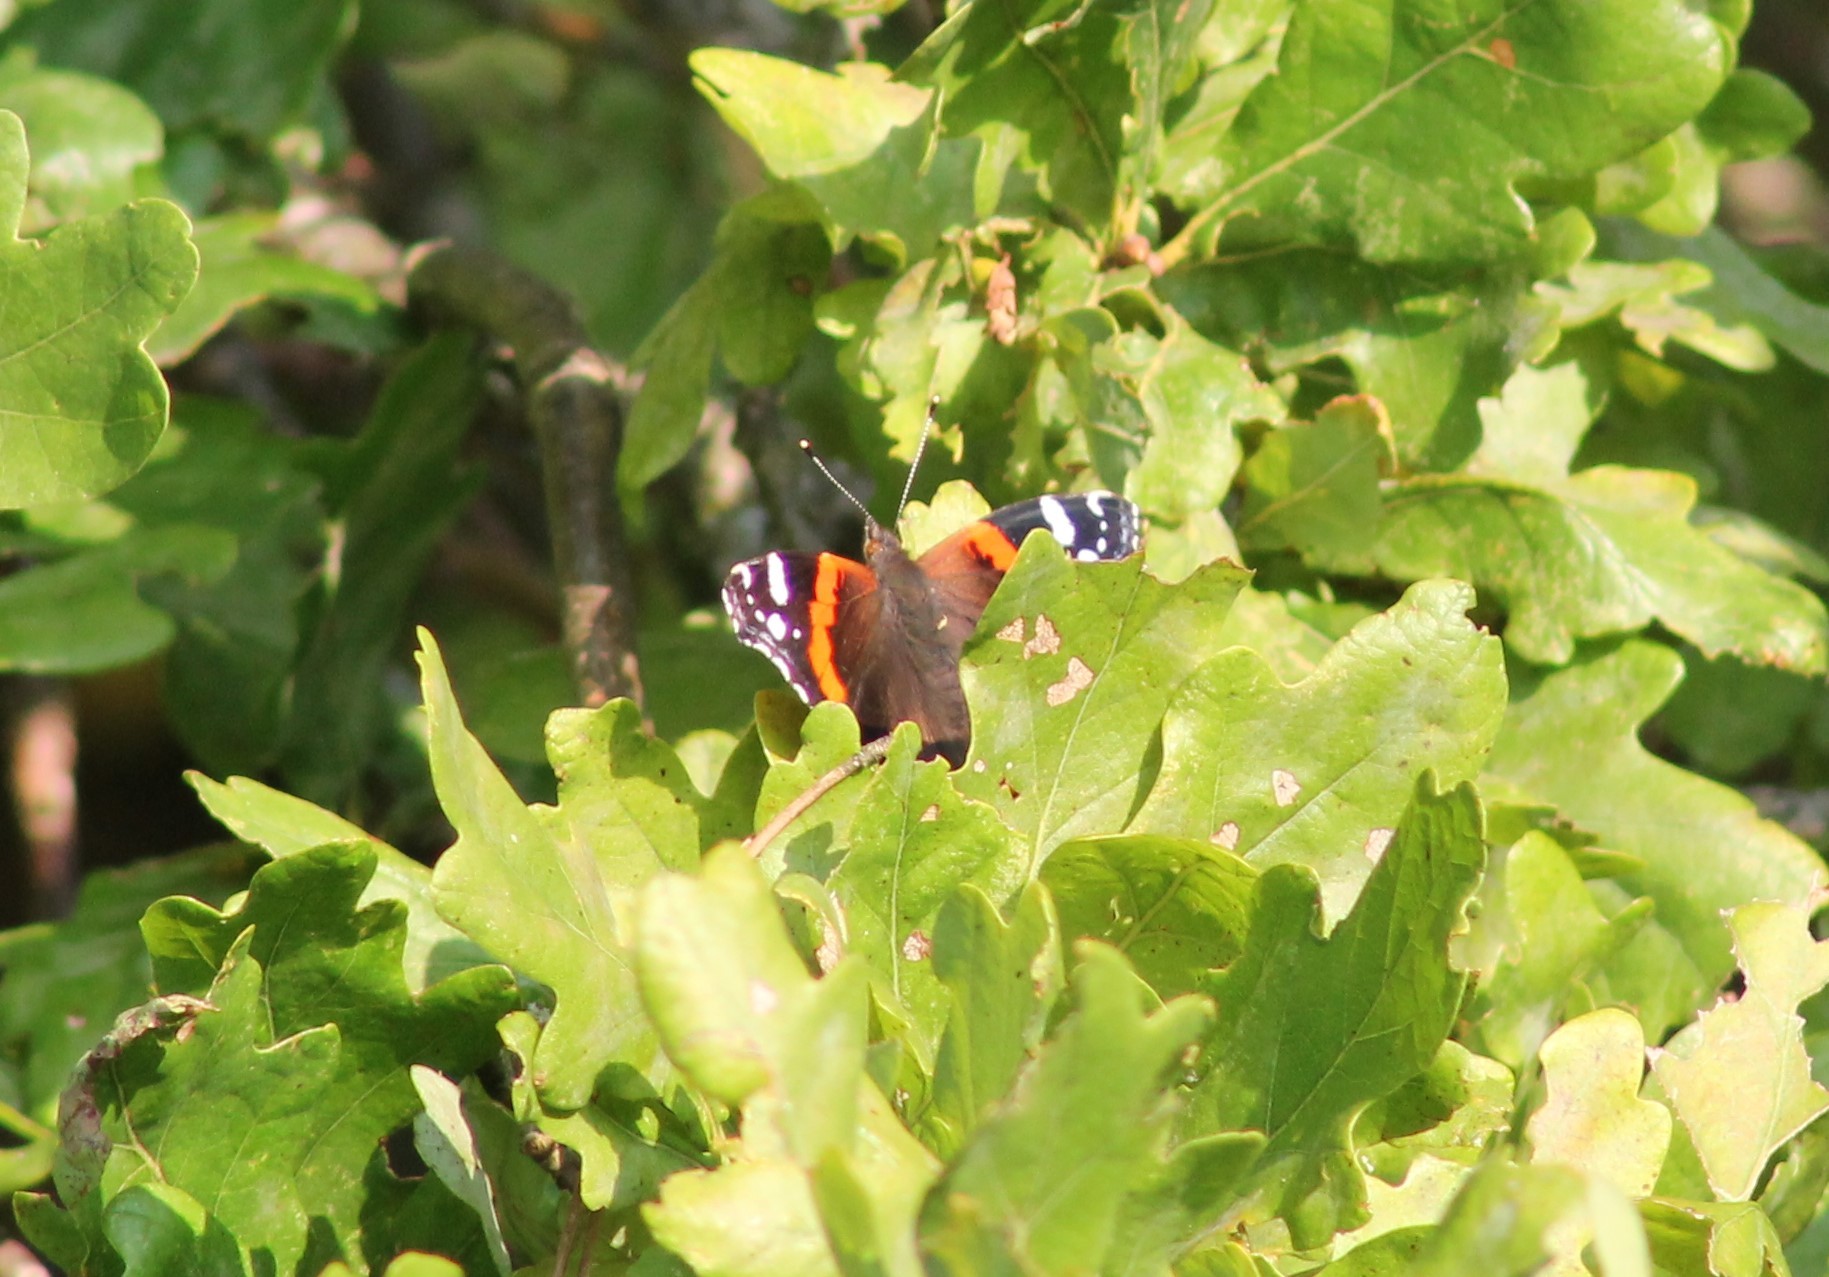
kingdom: Animalia
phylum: Arthropoda
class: Insecta
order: Lepidoptera
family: Nymphalidae
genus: Vanessa
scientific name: Vanessa atalanta
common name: Red admiral
